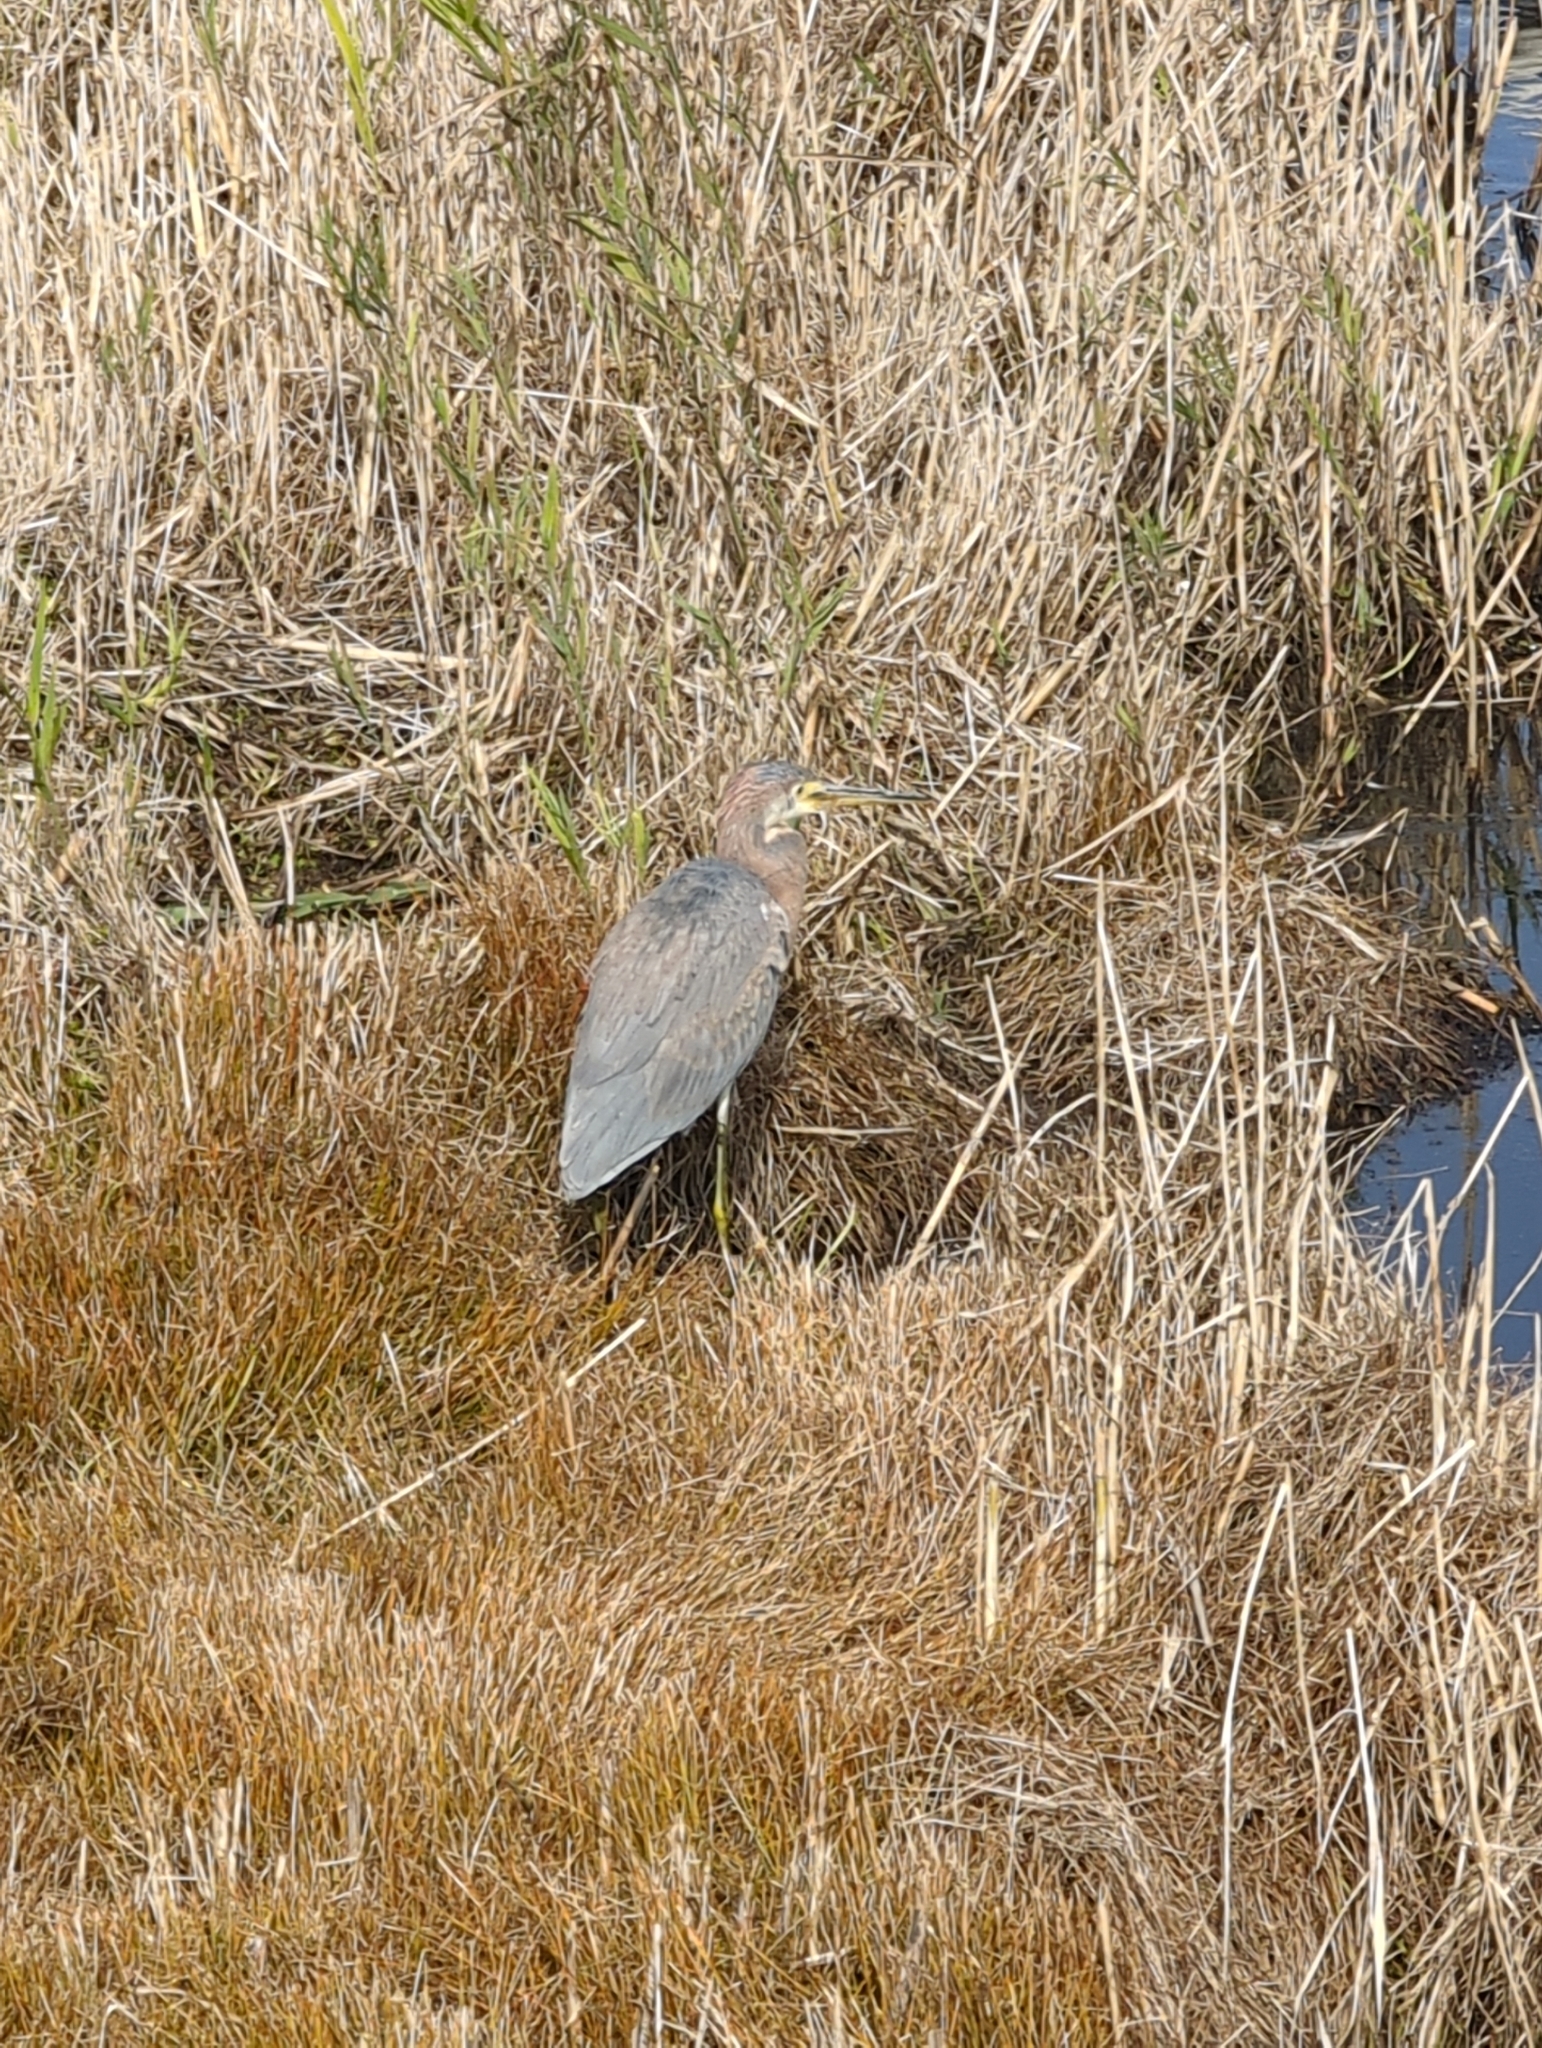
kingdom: Animalia
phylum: Chordata
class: Aves
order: Pelecaniformes
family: Ardeidae
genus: Egretta
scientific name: Egretta tricolor
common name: Tricolored heron
